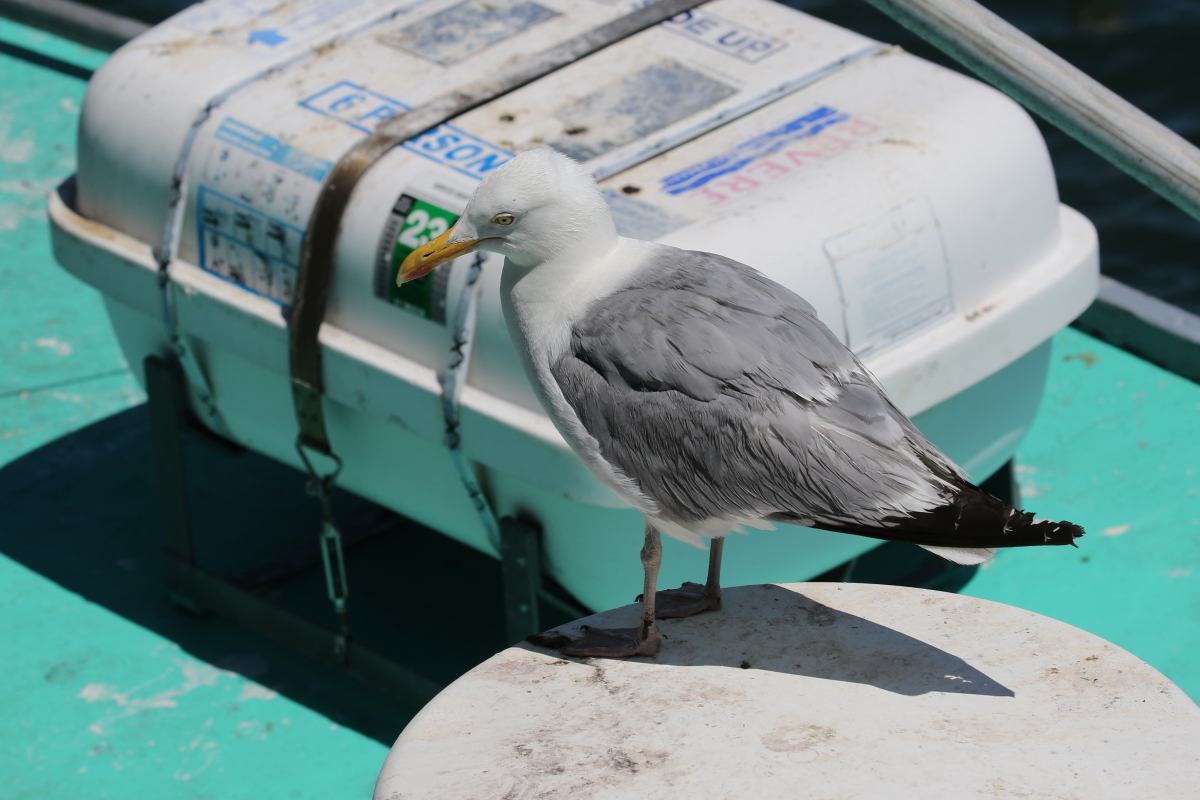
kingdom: Animalia
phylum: Chordata
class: Aves
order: Charadriiformes
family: Laridae
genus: Larus
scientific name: Larus argentatus
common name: Herring gull
